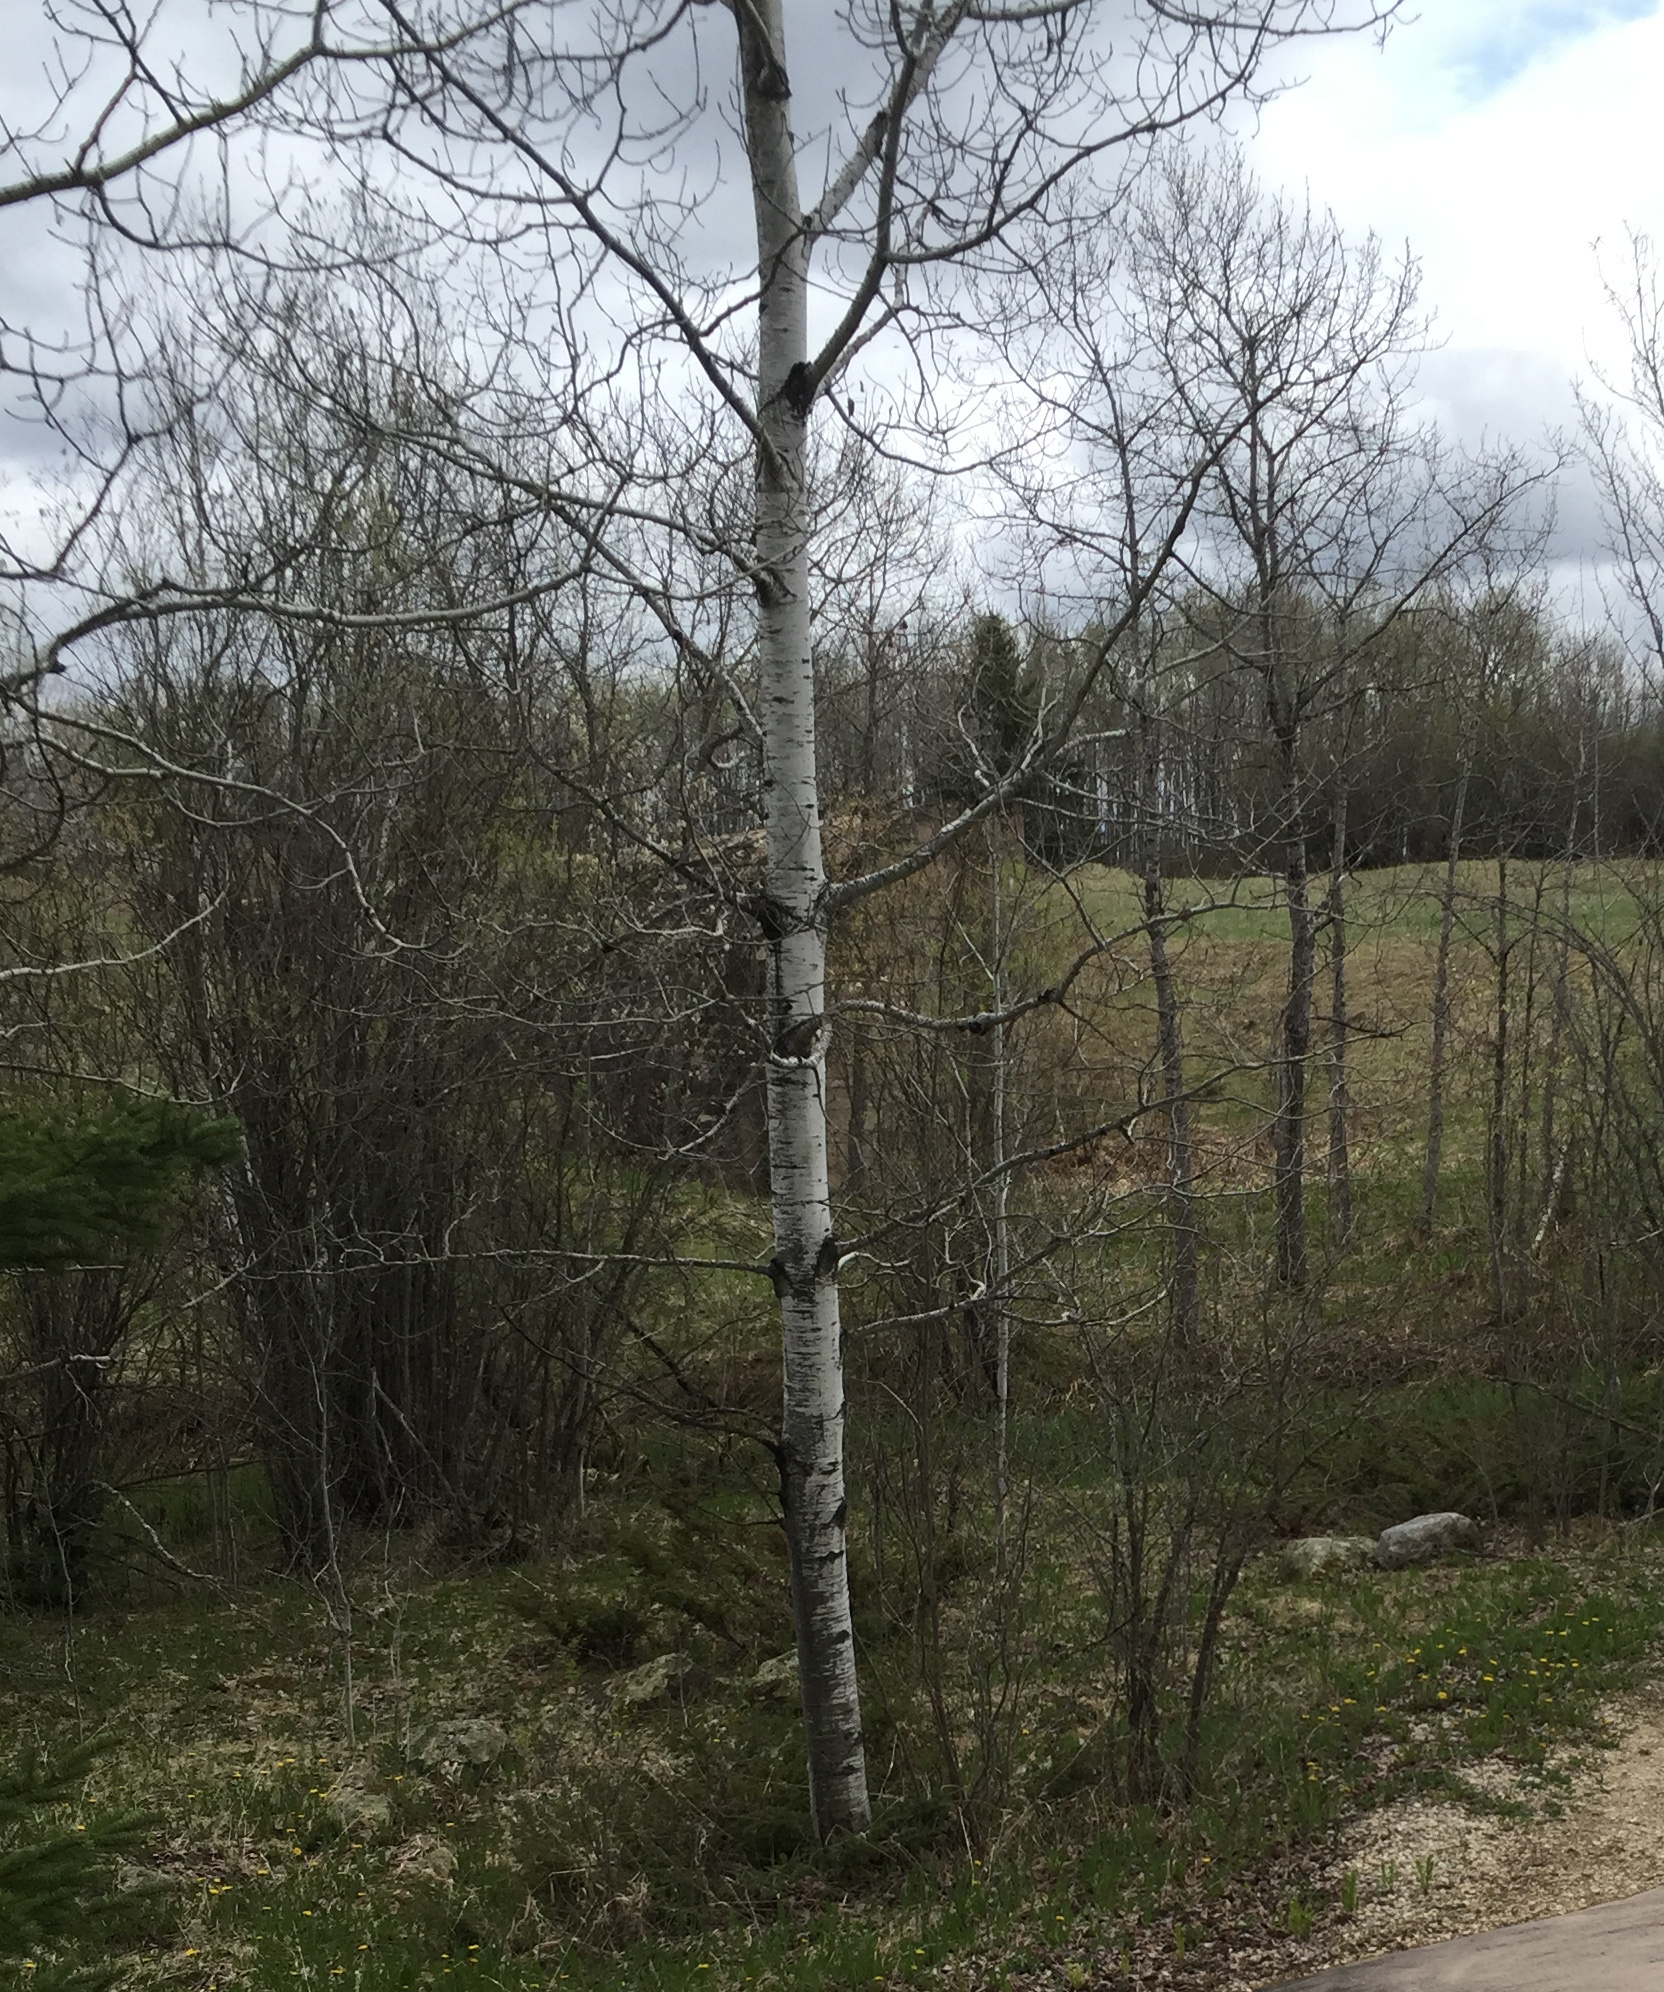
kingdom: Plantae
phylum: Tracheophyta
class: Magnoliopsida
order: Malpighiales
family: Salicaceae
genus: Populus
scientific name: Populus tremuloides
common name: Quaking aspen
